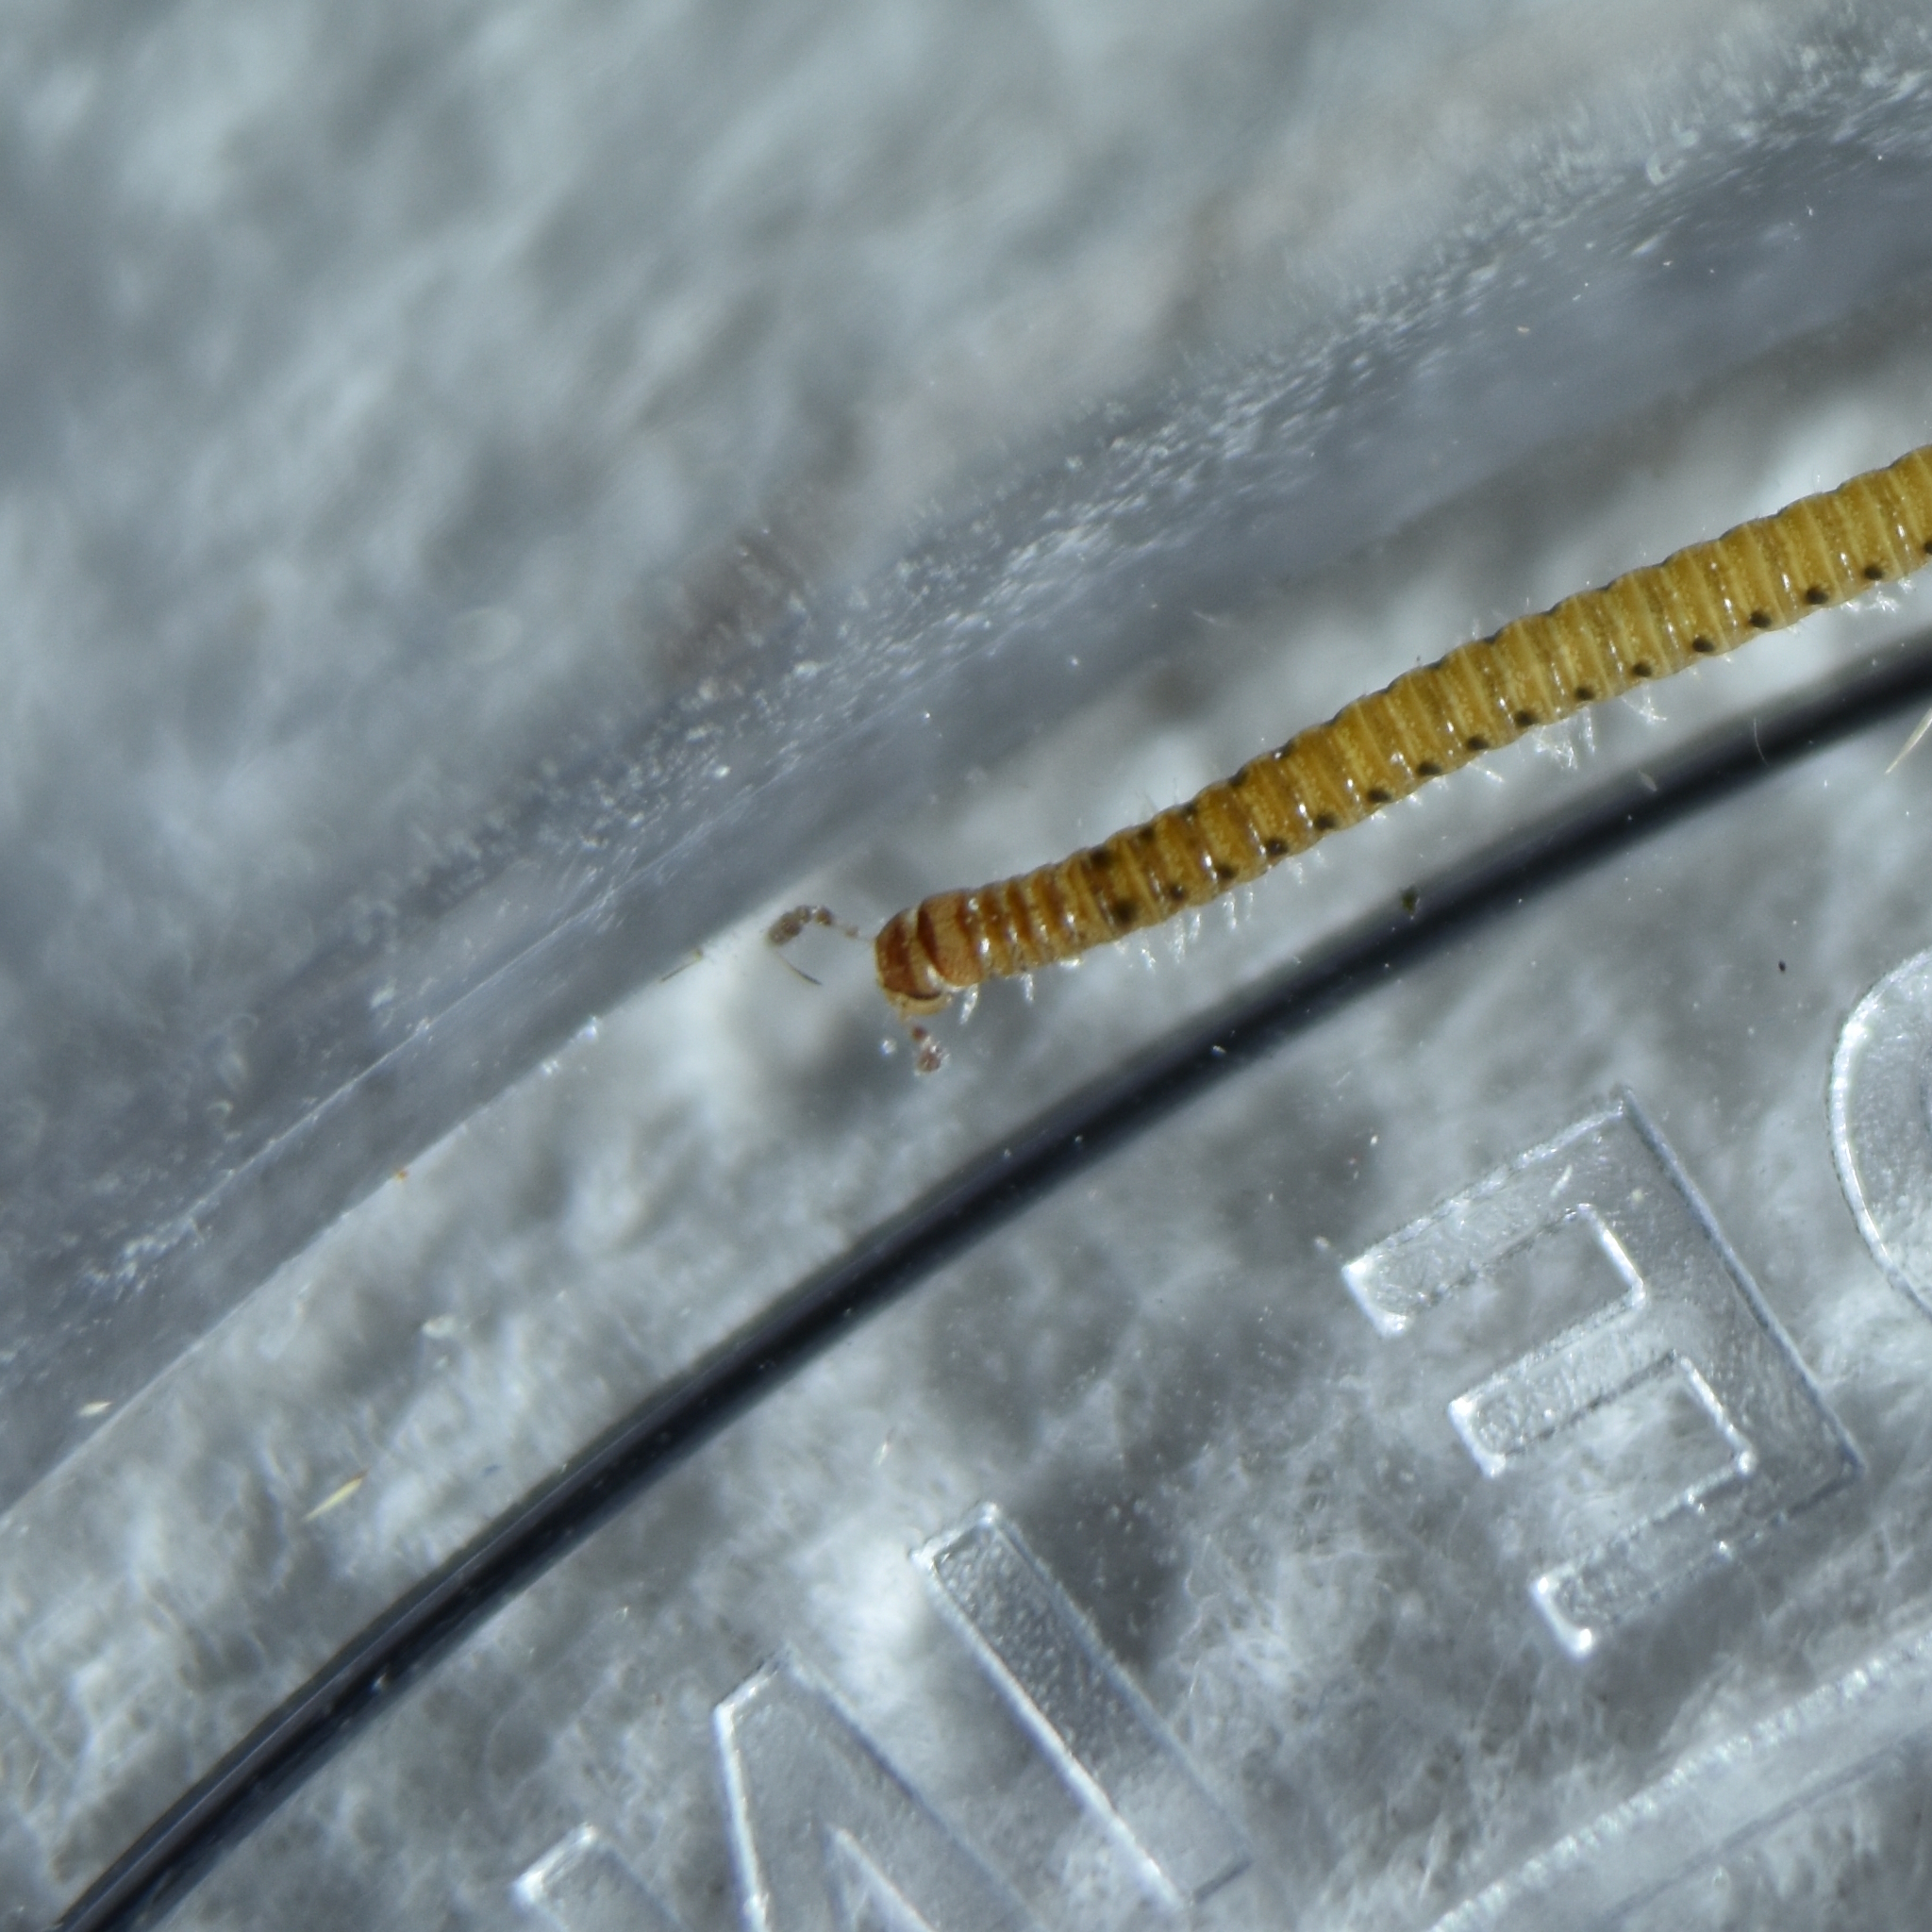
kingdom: Animalia
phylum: Arthropoda
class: Diplopoda
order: Julida
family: Blaniulidae
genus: Proteroiulus
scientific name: Proteroiulus fuscus
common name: Millipede
